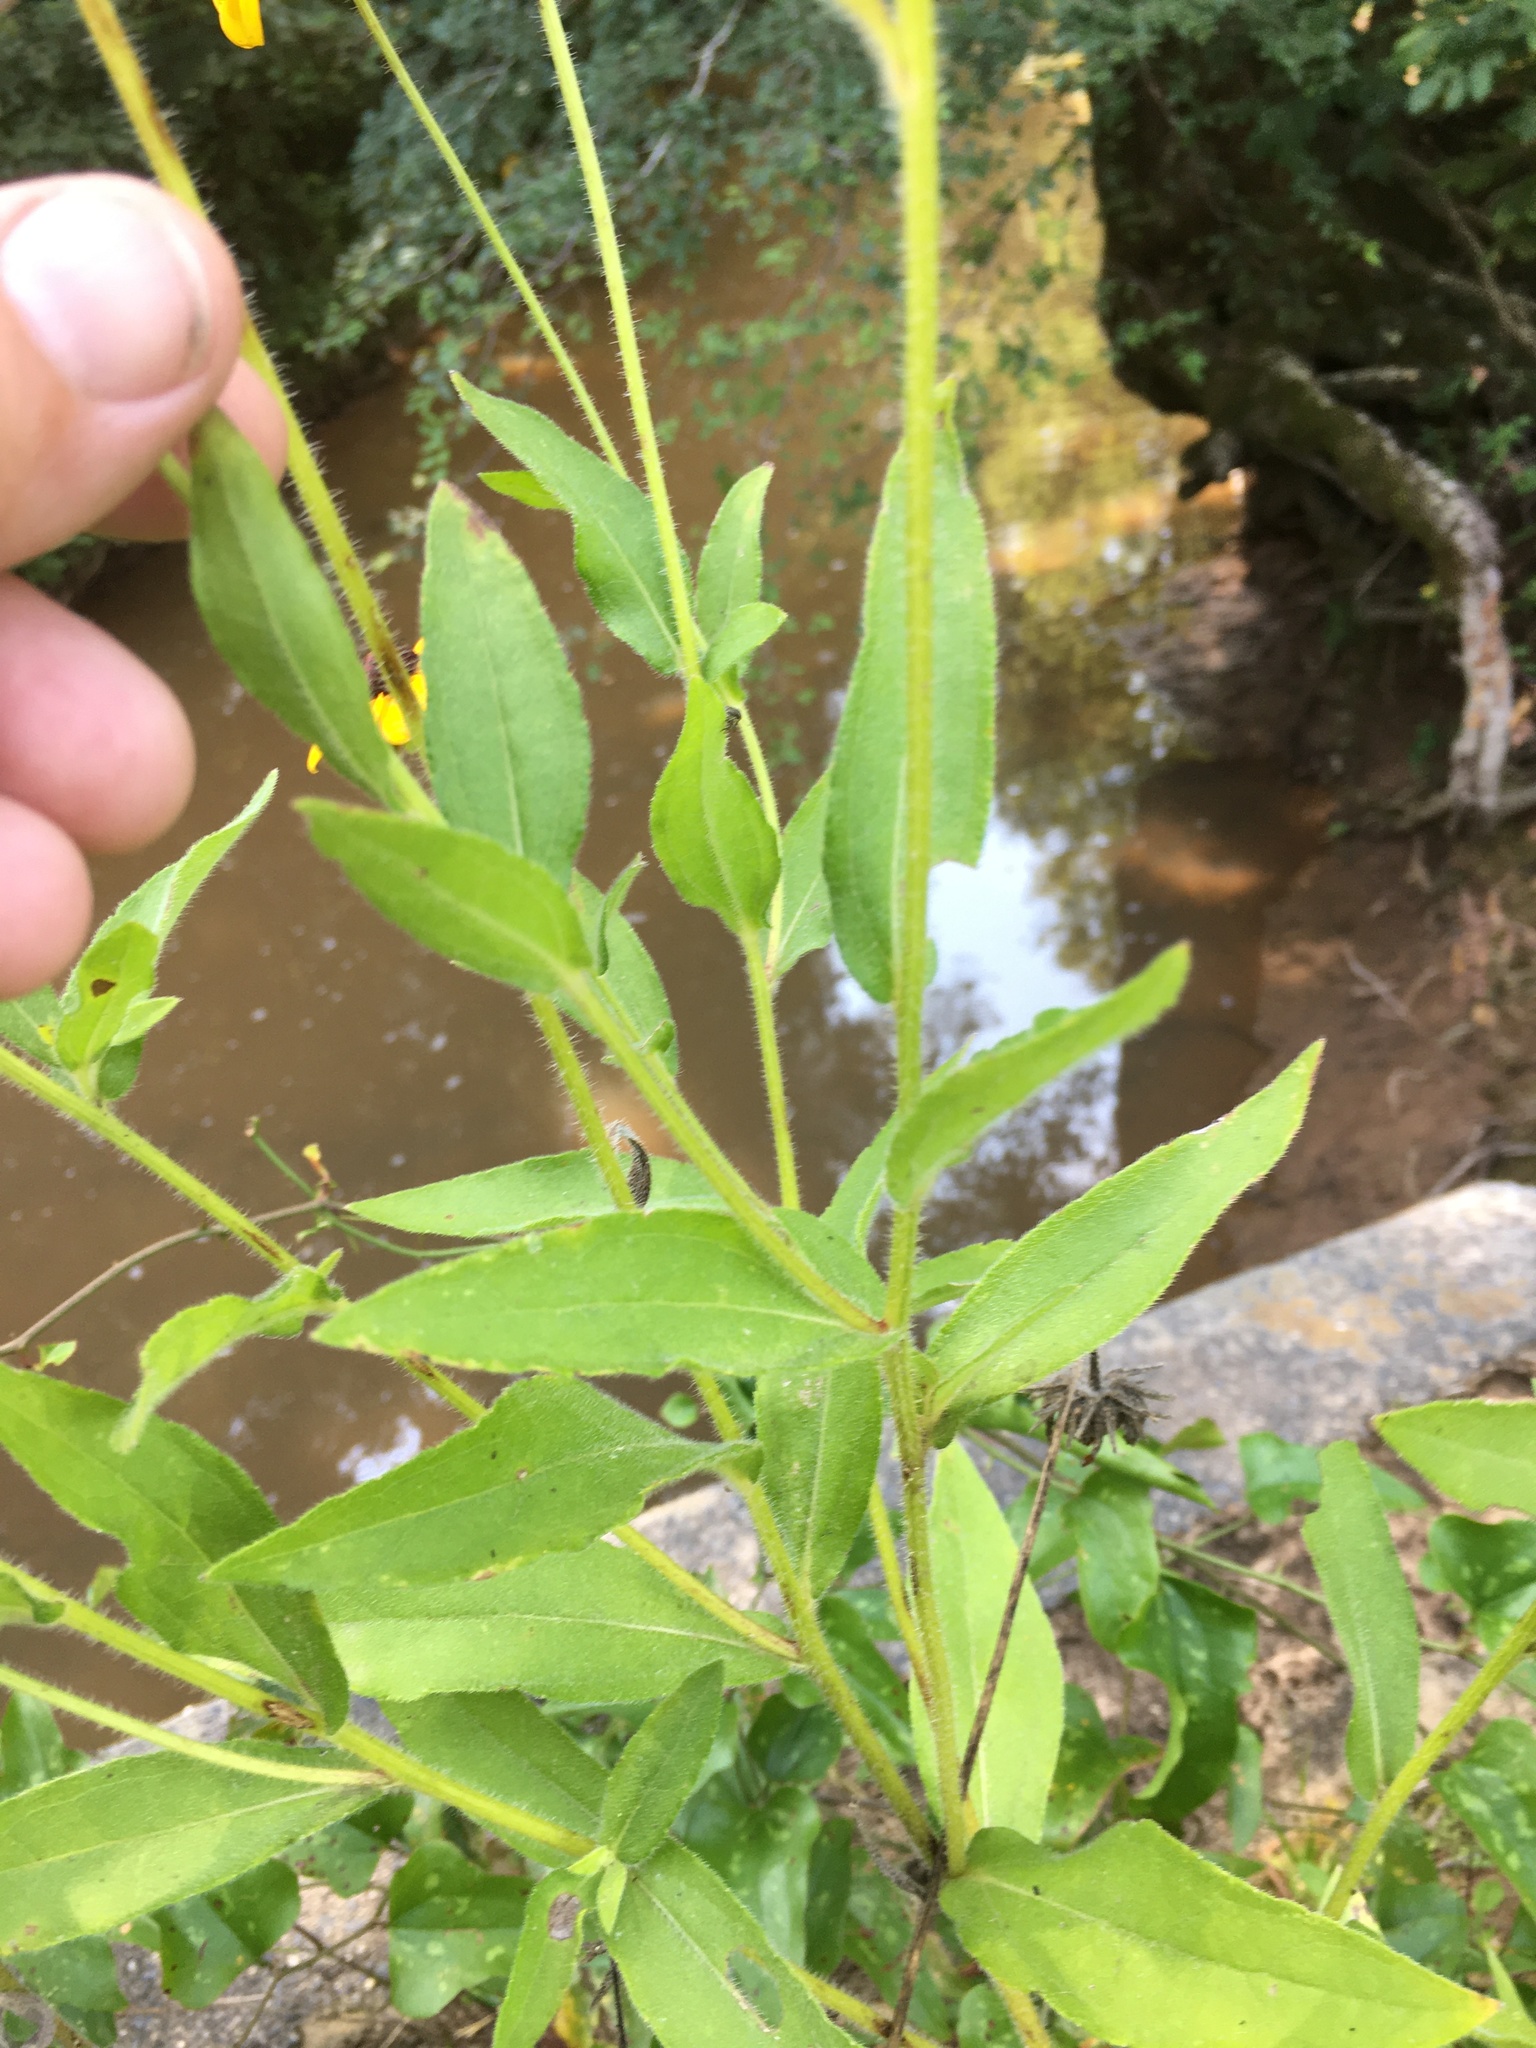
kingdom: Plantae
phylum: Tracheophyta
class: Magnoliopsida
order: Asterales
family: Asteraceae
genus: Rudbeckia
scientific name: Rudbeckia hirta
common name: Black-eyed-susan
